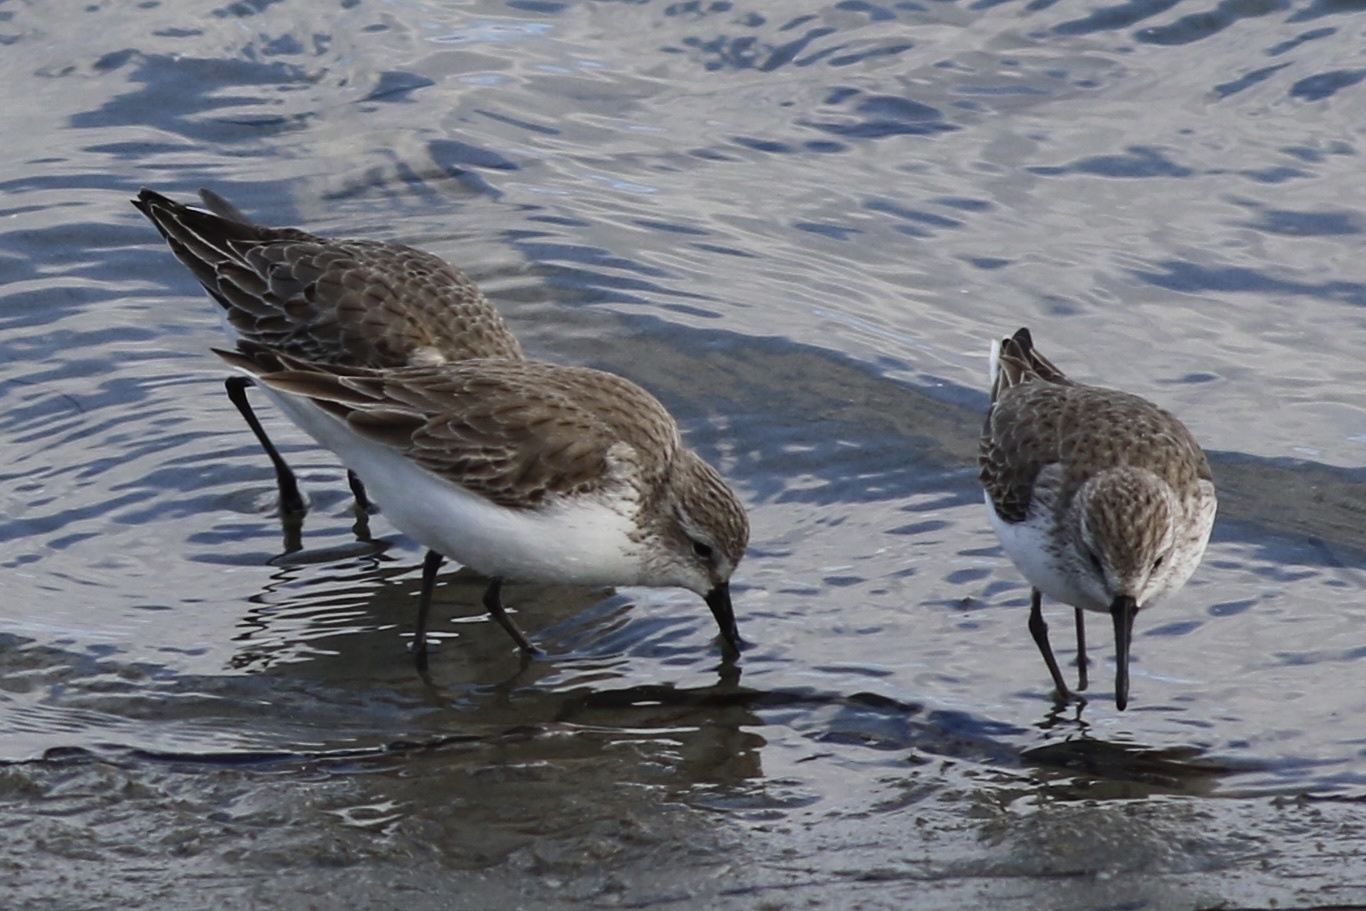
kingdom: Animalia
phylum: Chordata
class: Aves
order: Charadriiformes
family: Scolopacidae
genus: Calidris
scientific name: Calidris mauri
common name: Western sandpiper
